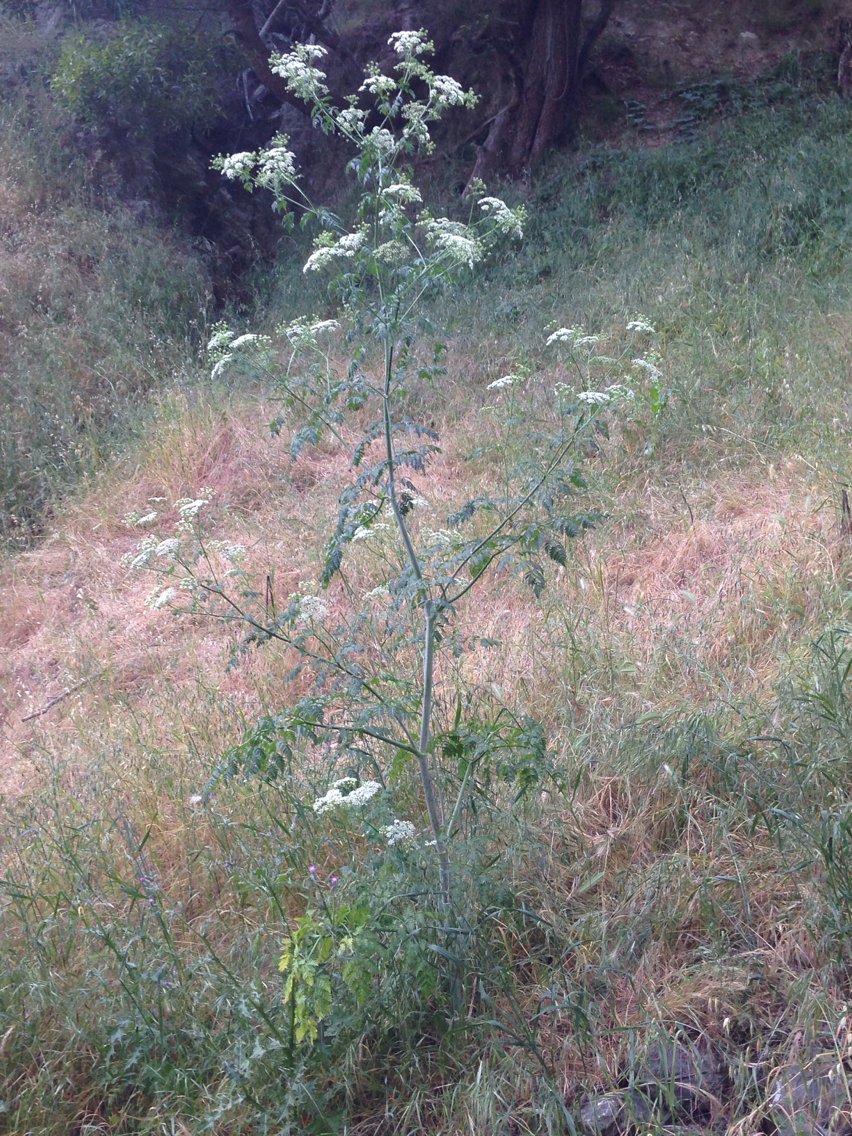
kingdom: Plantae
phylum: Tracheophyta
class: Magnoliopsida
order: Apiales
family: Apiaceae
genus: Conium
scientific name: Conium maculatum
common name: Hemlock
